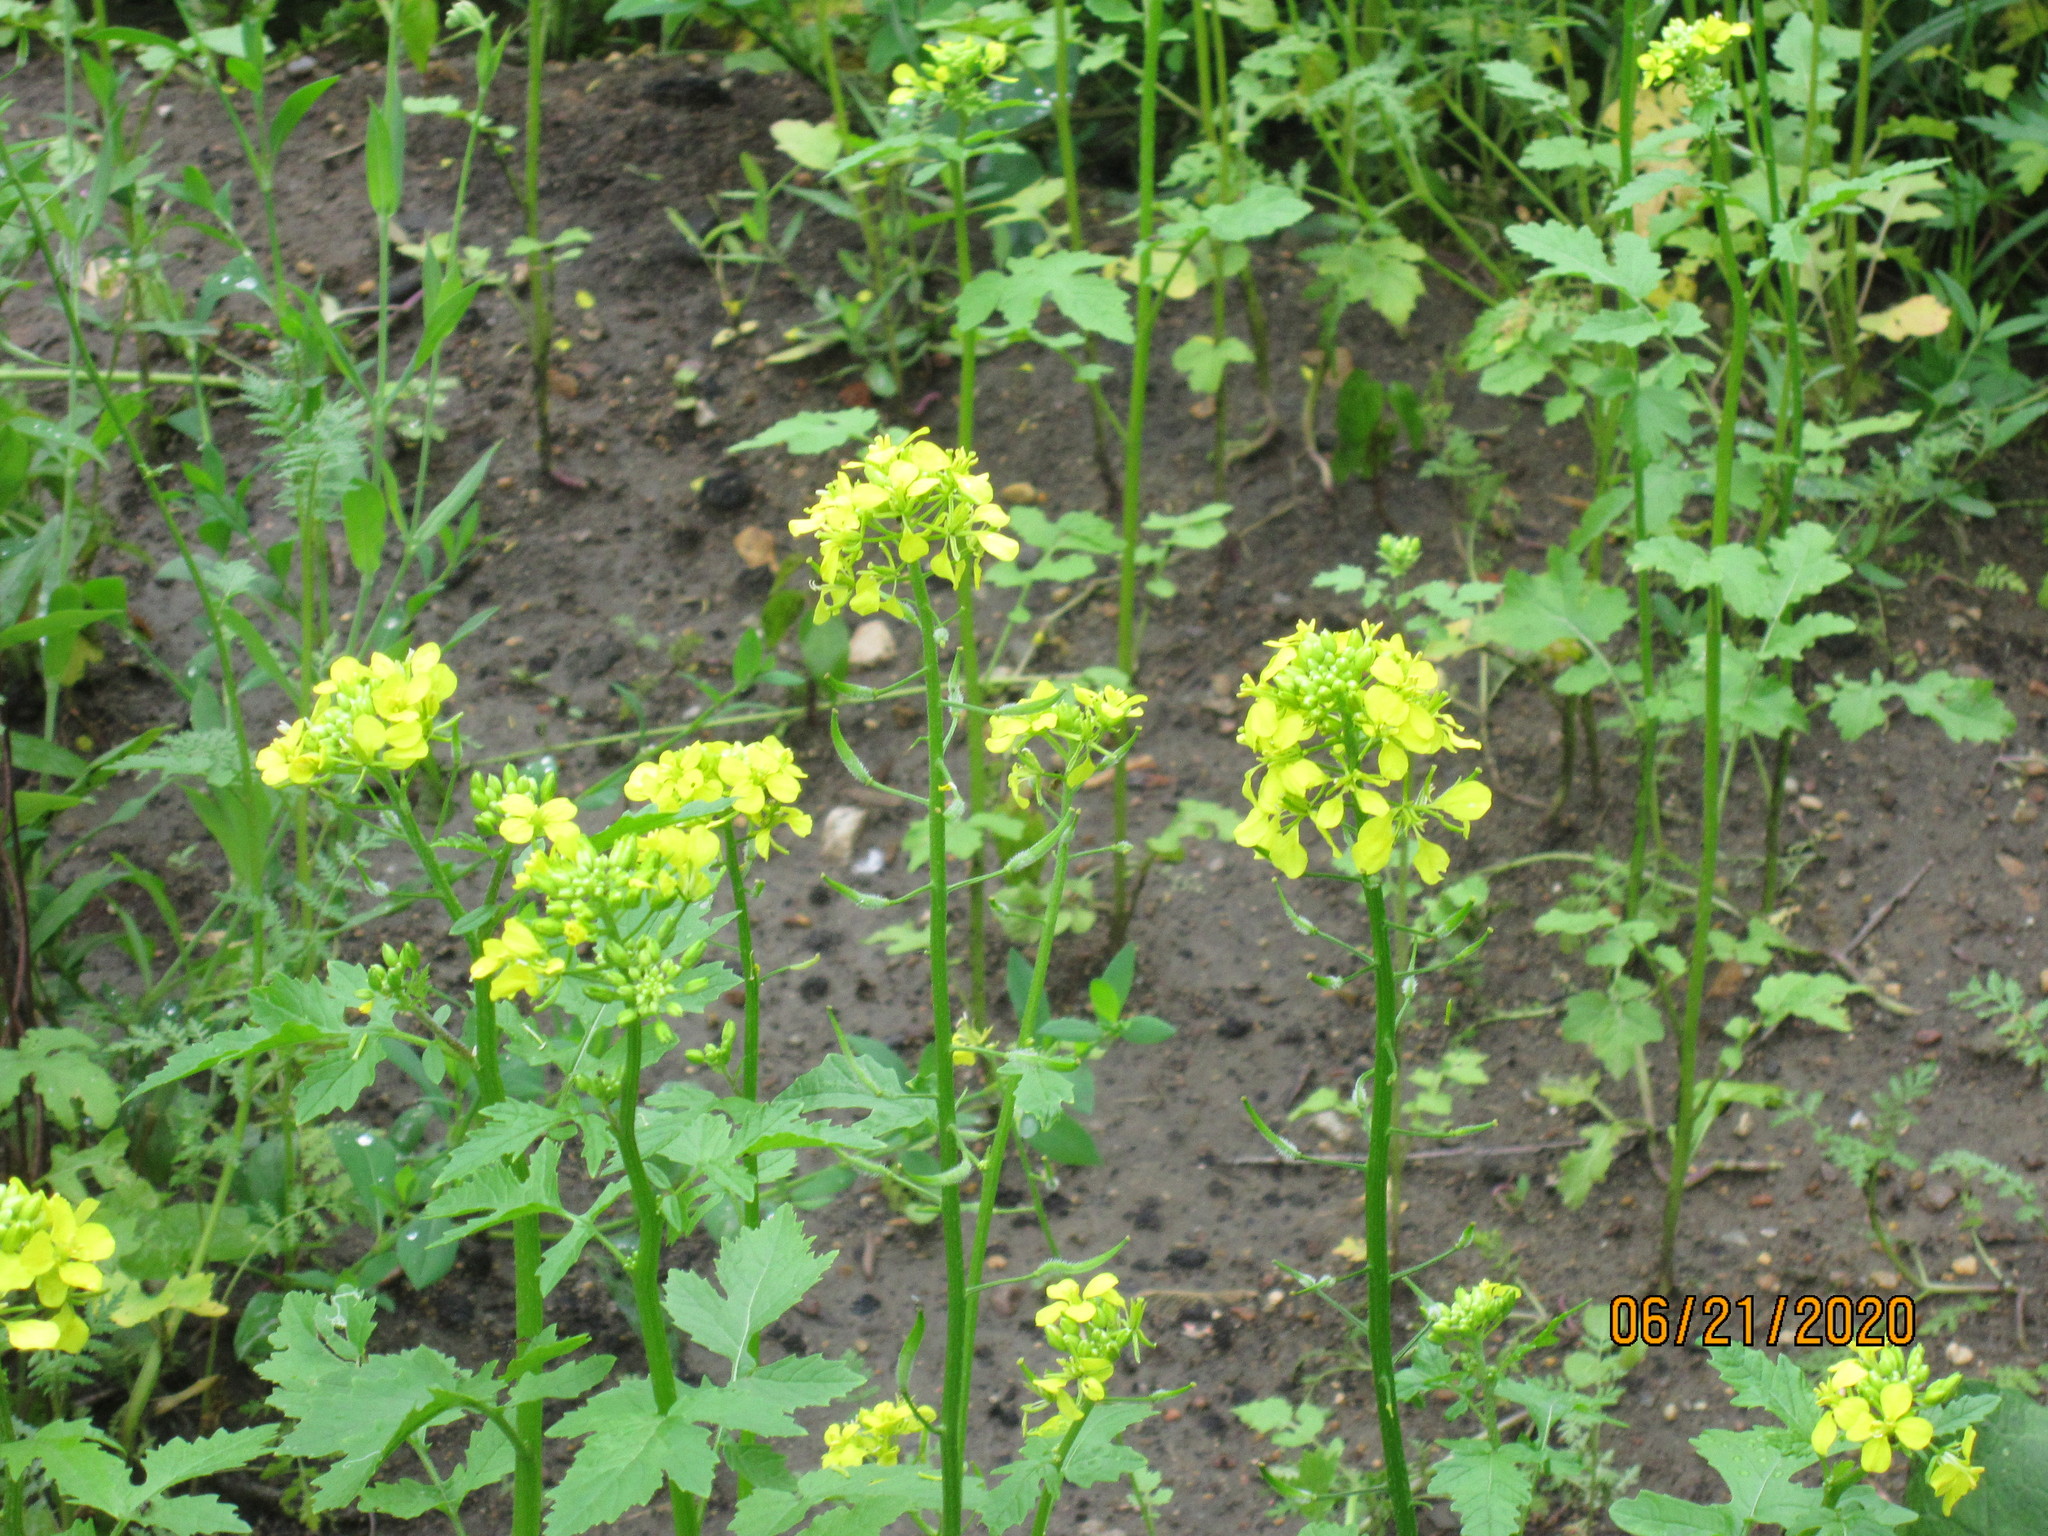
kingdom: Plantae
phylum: Tracheophyta
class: Magnoliopsida
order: Brassicales
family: Brassicaceae
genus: Sinapis
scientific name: Sinapis alba
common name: White mustard
